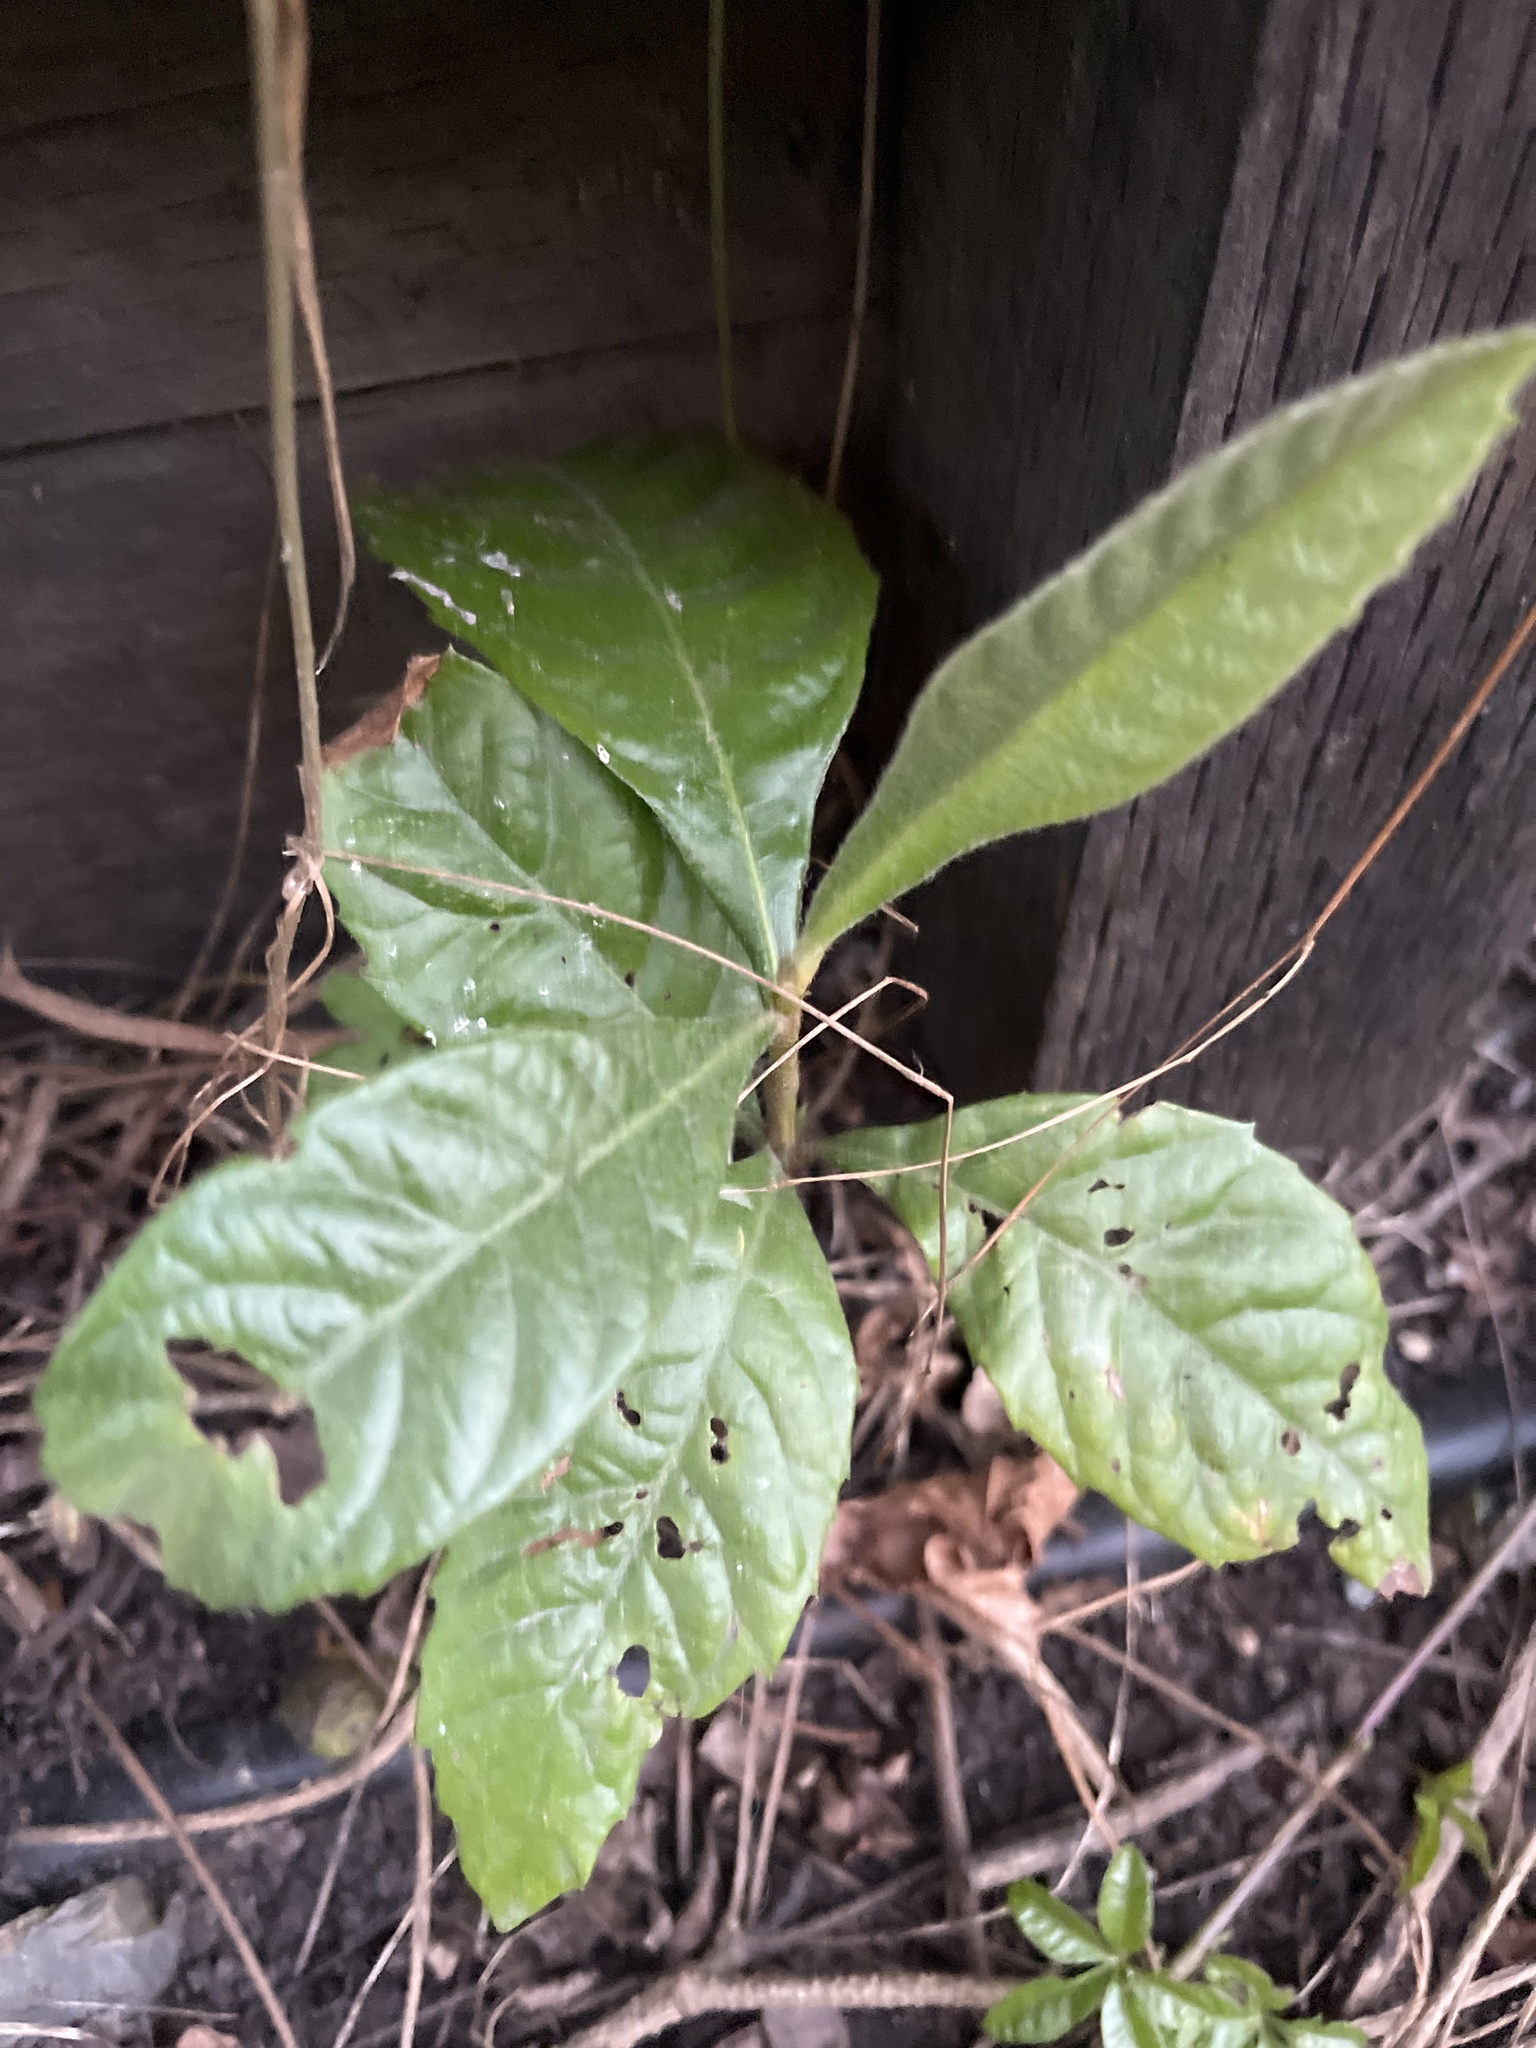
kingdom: Plantae
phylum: Tracheophyta
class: Magnoliopsida
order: Rosales
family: Rosaceae
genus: Rhaphiolepis
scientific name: Rhaphiolepis bibas
